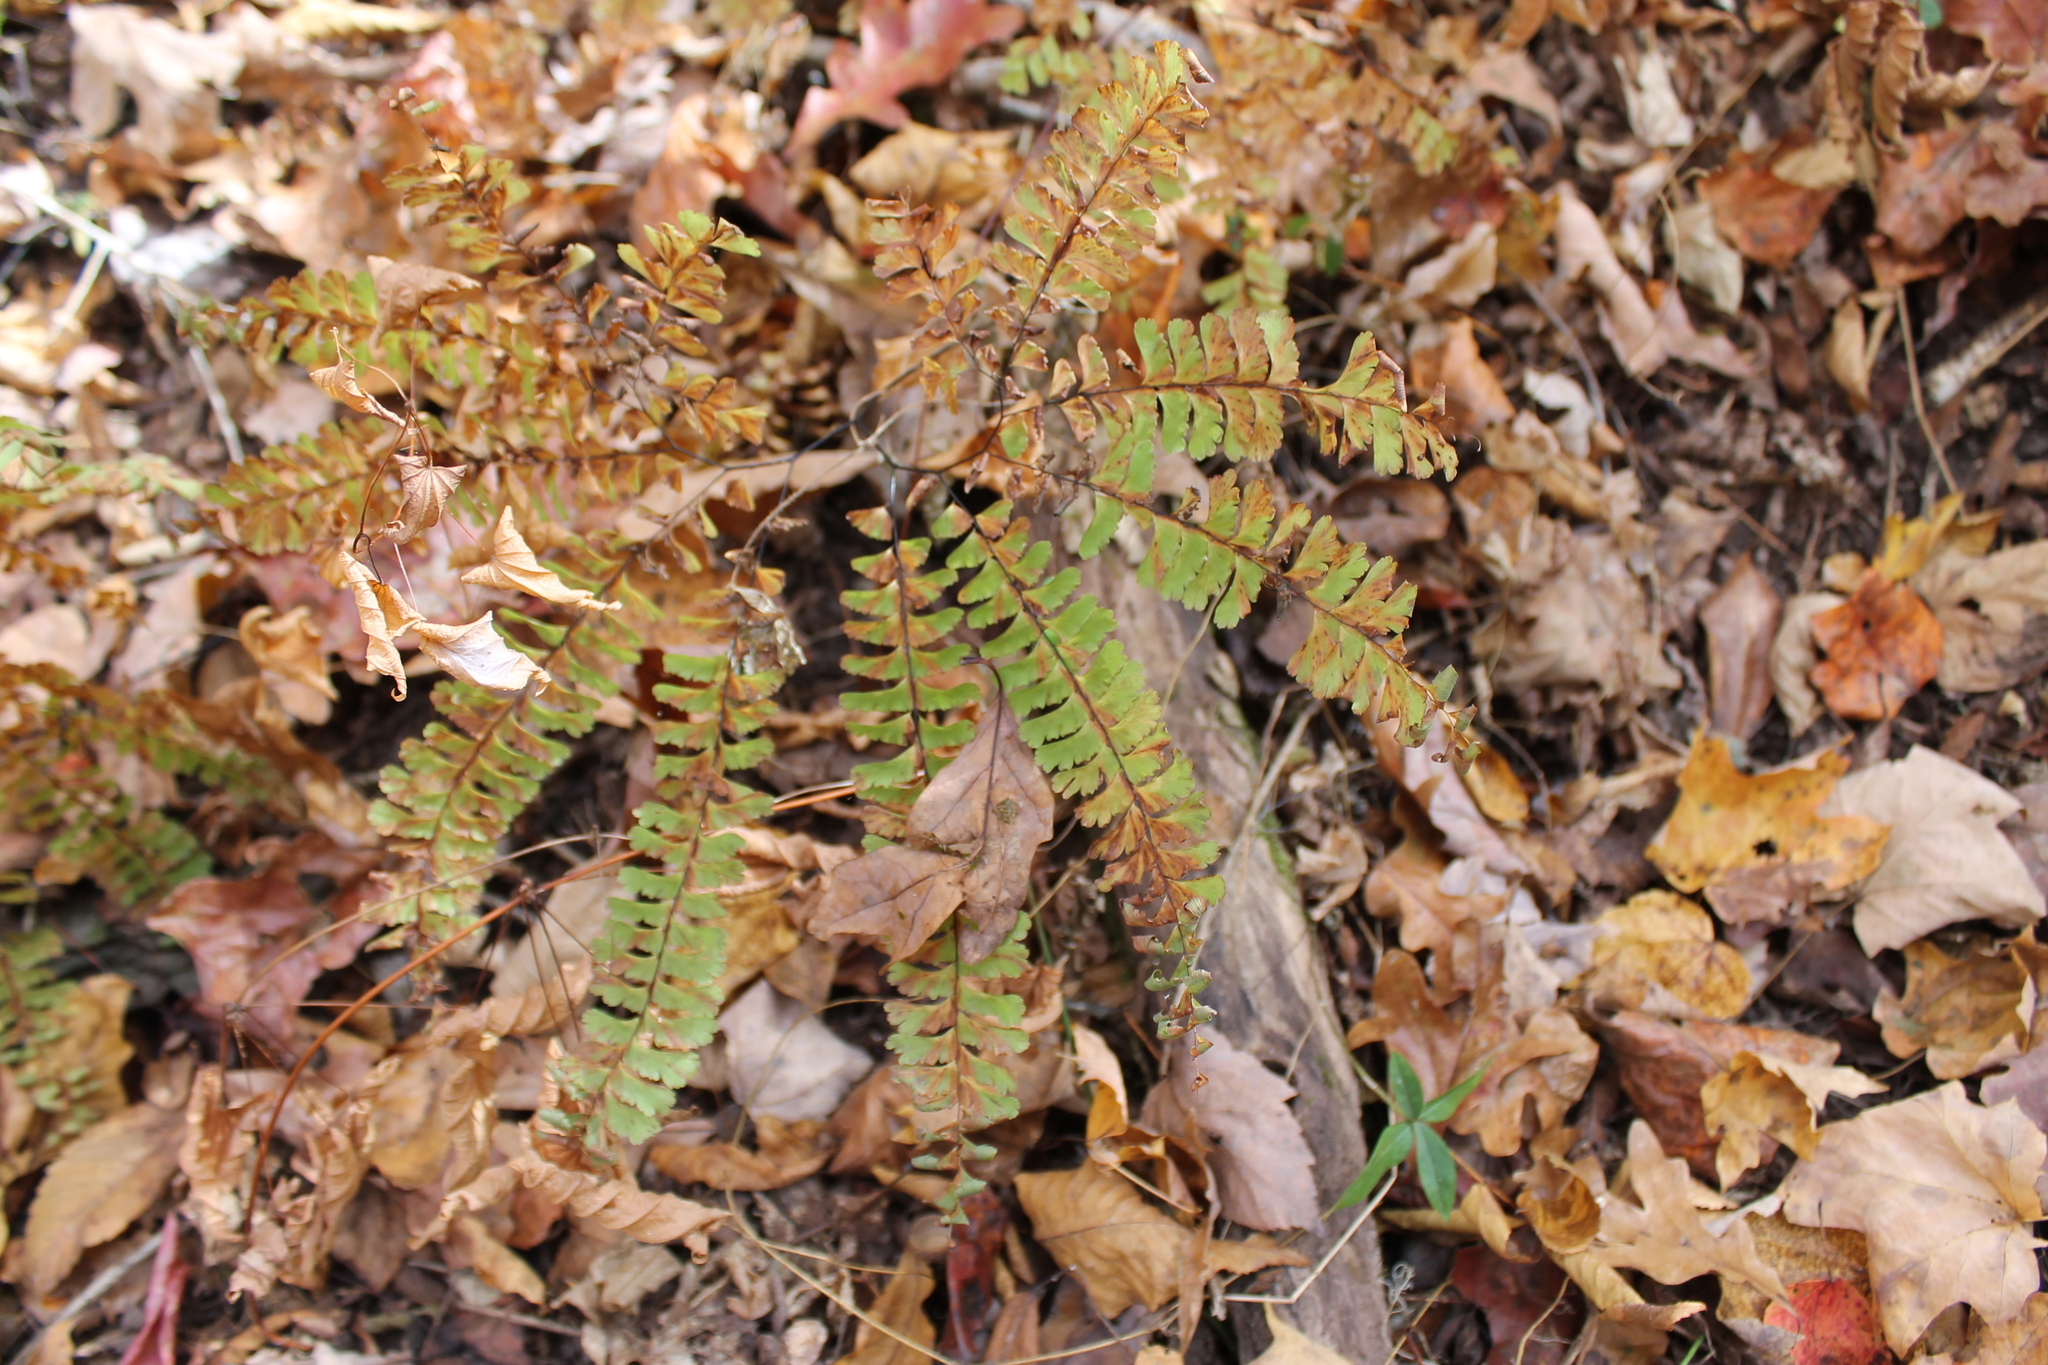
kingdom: Plantae
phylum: Tracheophyta
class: Polypodiopsida
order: Polypodiales
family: Pteridaceae
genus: Adiantum
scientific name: Adiantum pedatum
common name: Five-finger fern
